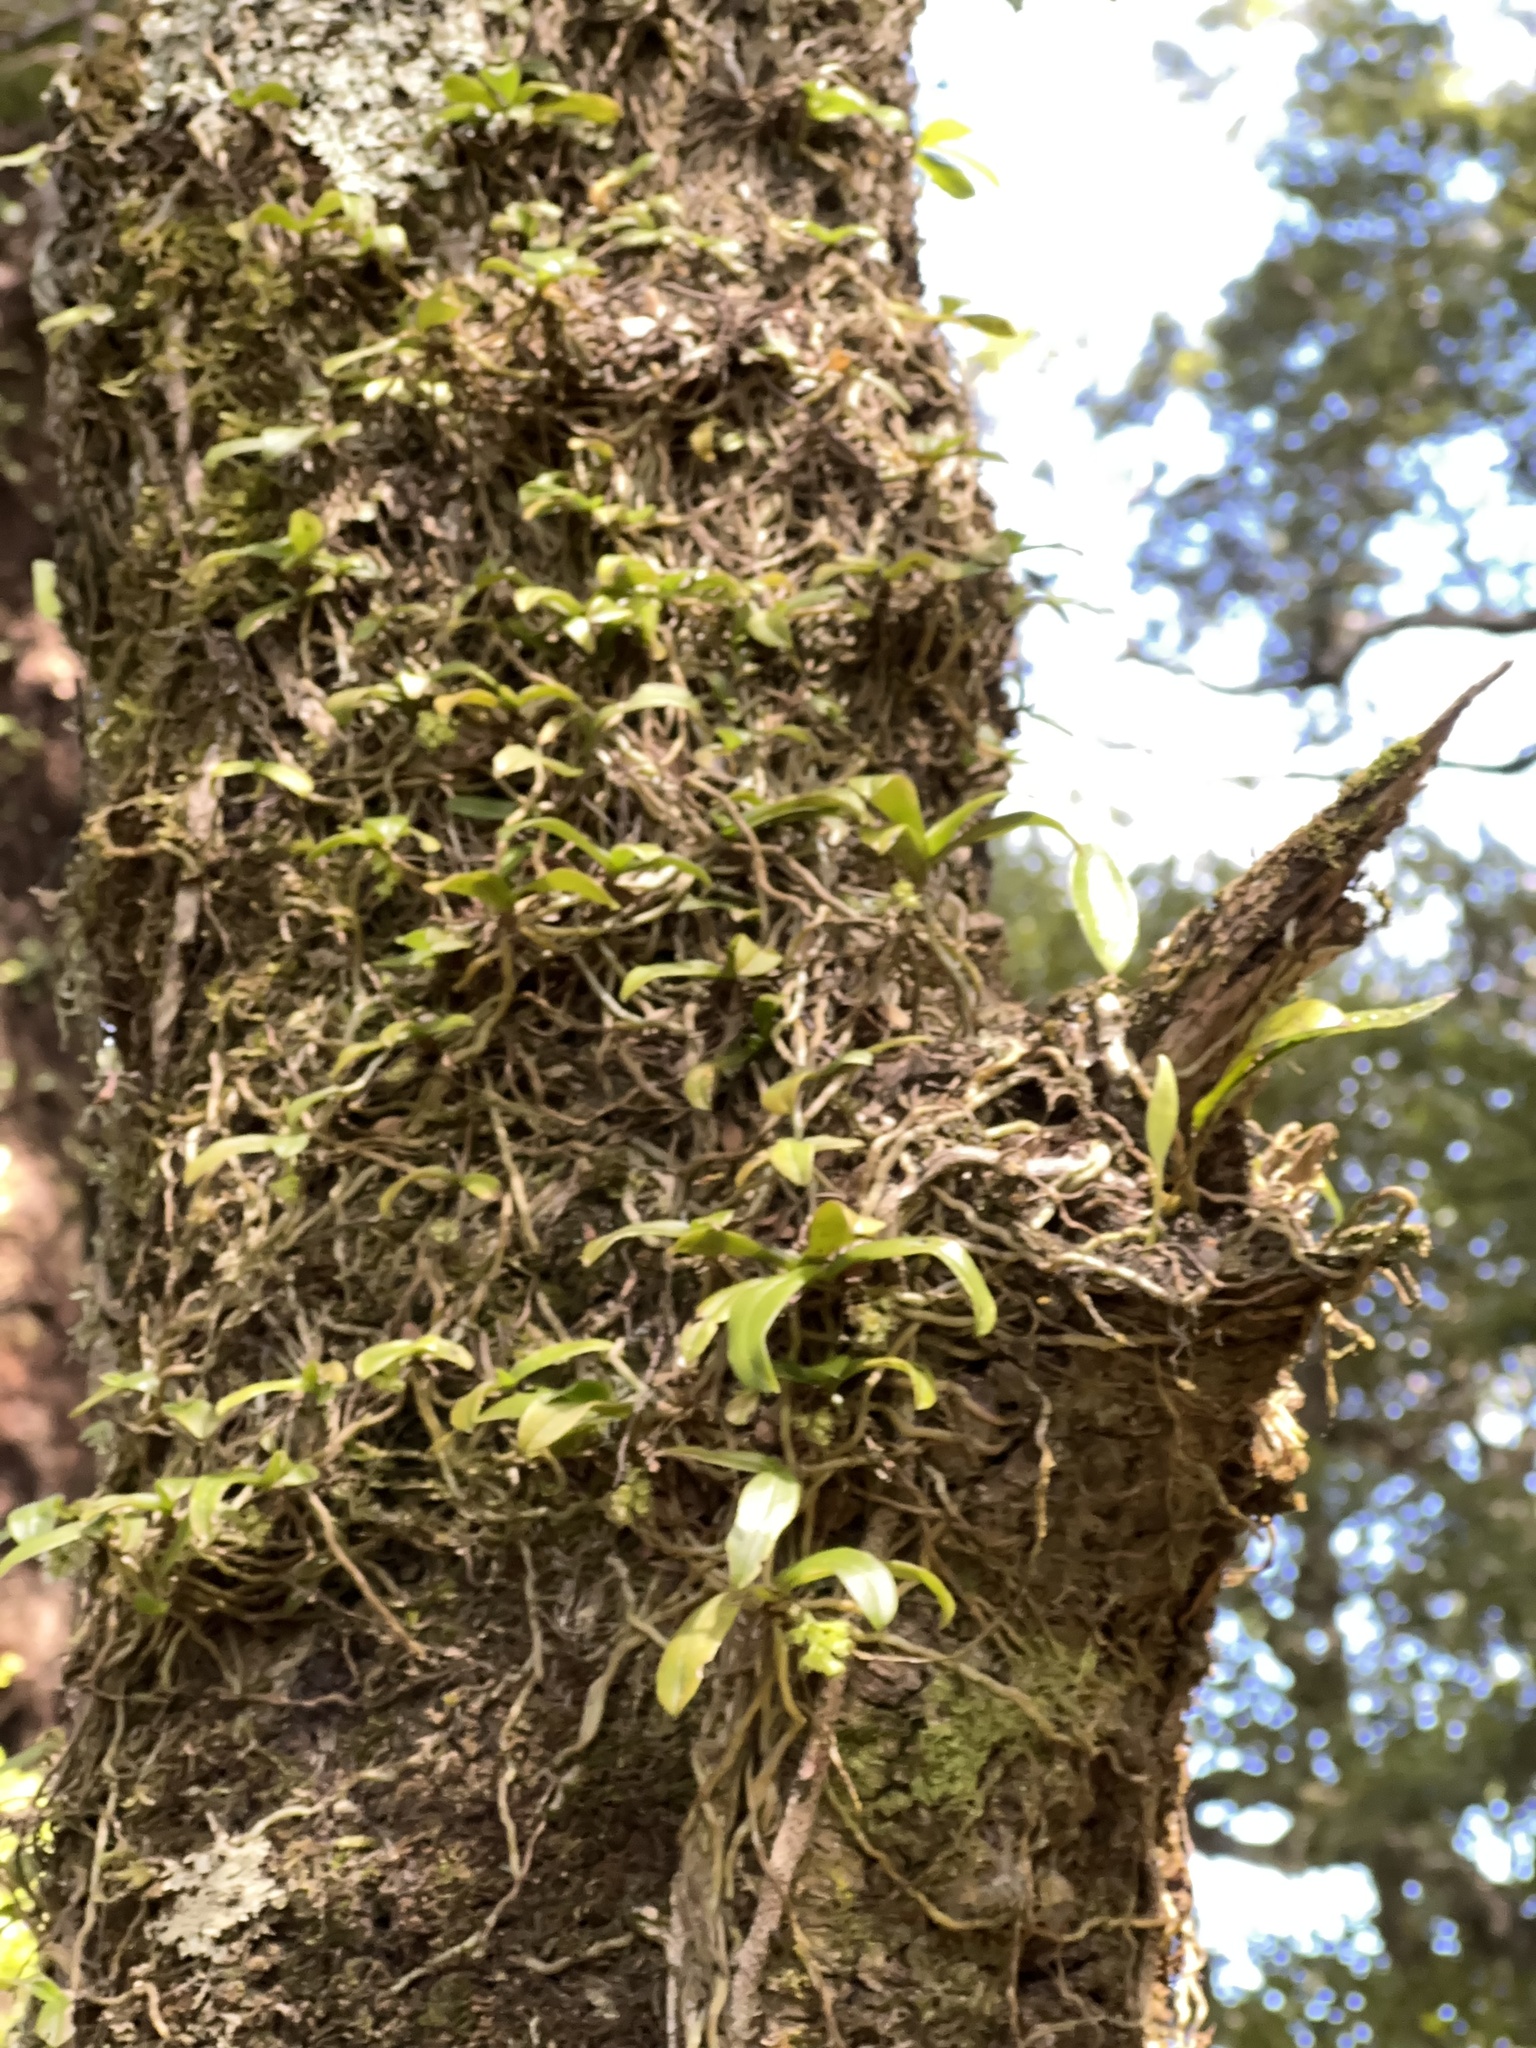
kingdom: Plantae
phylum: Tracheophyta
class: Liliopsida
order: Asparagales
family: Orchidaceae
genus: Drymoanthus
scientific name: Drymoanthus adversus
